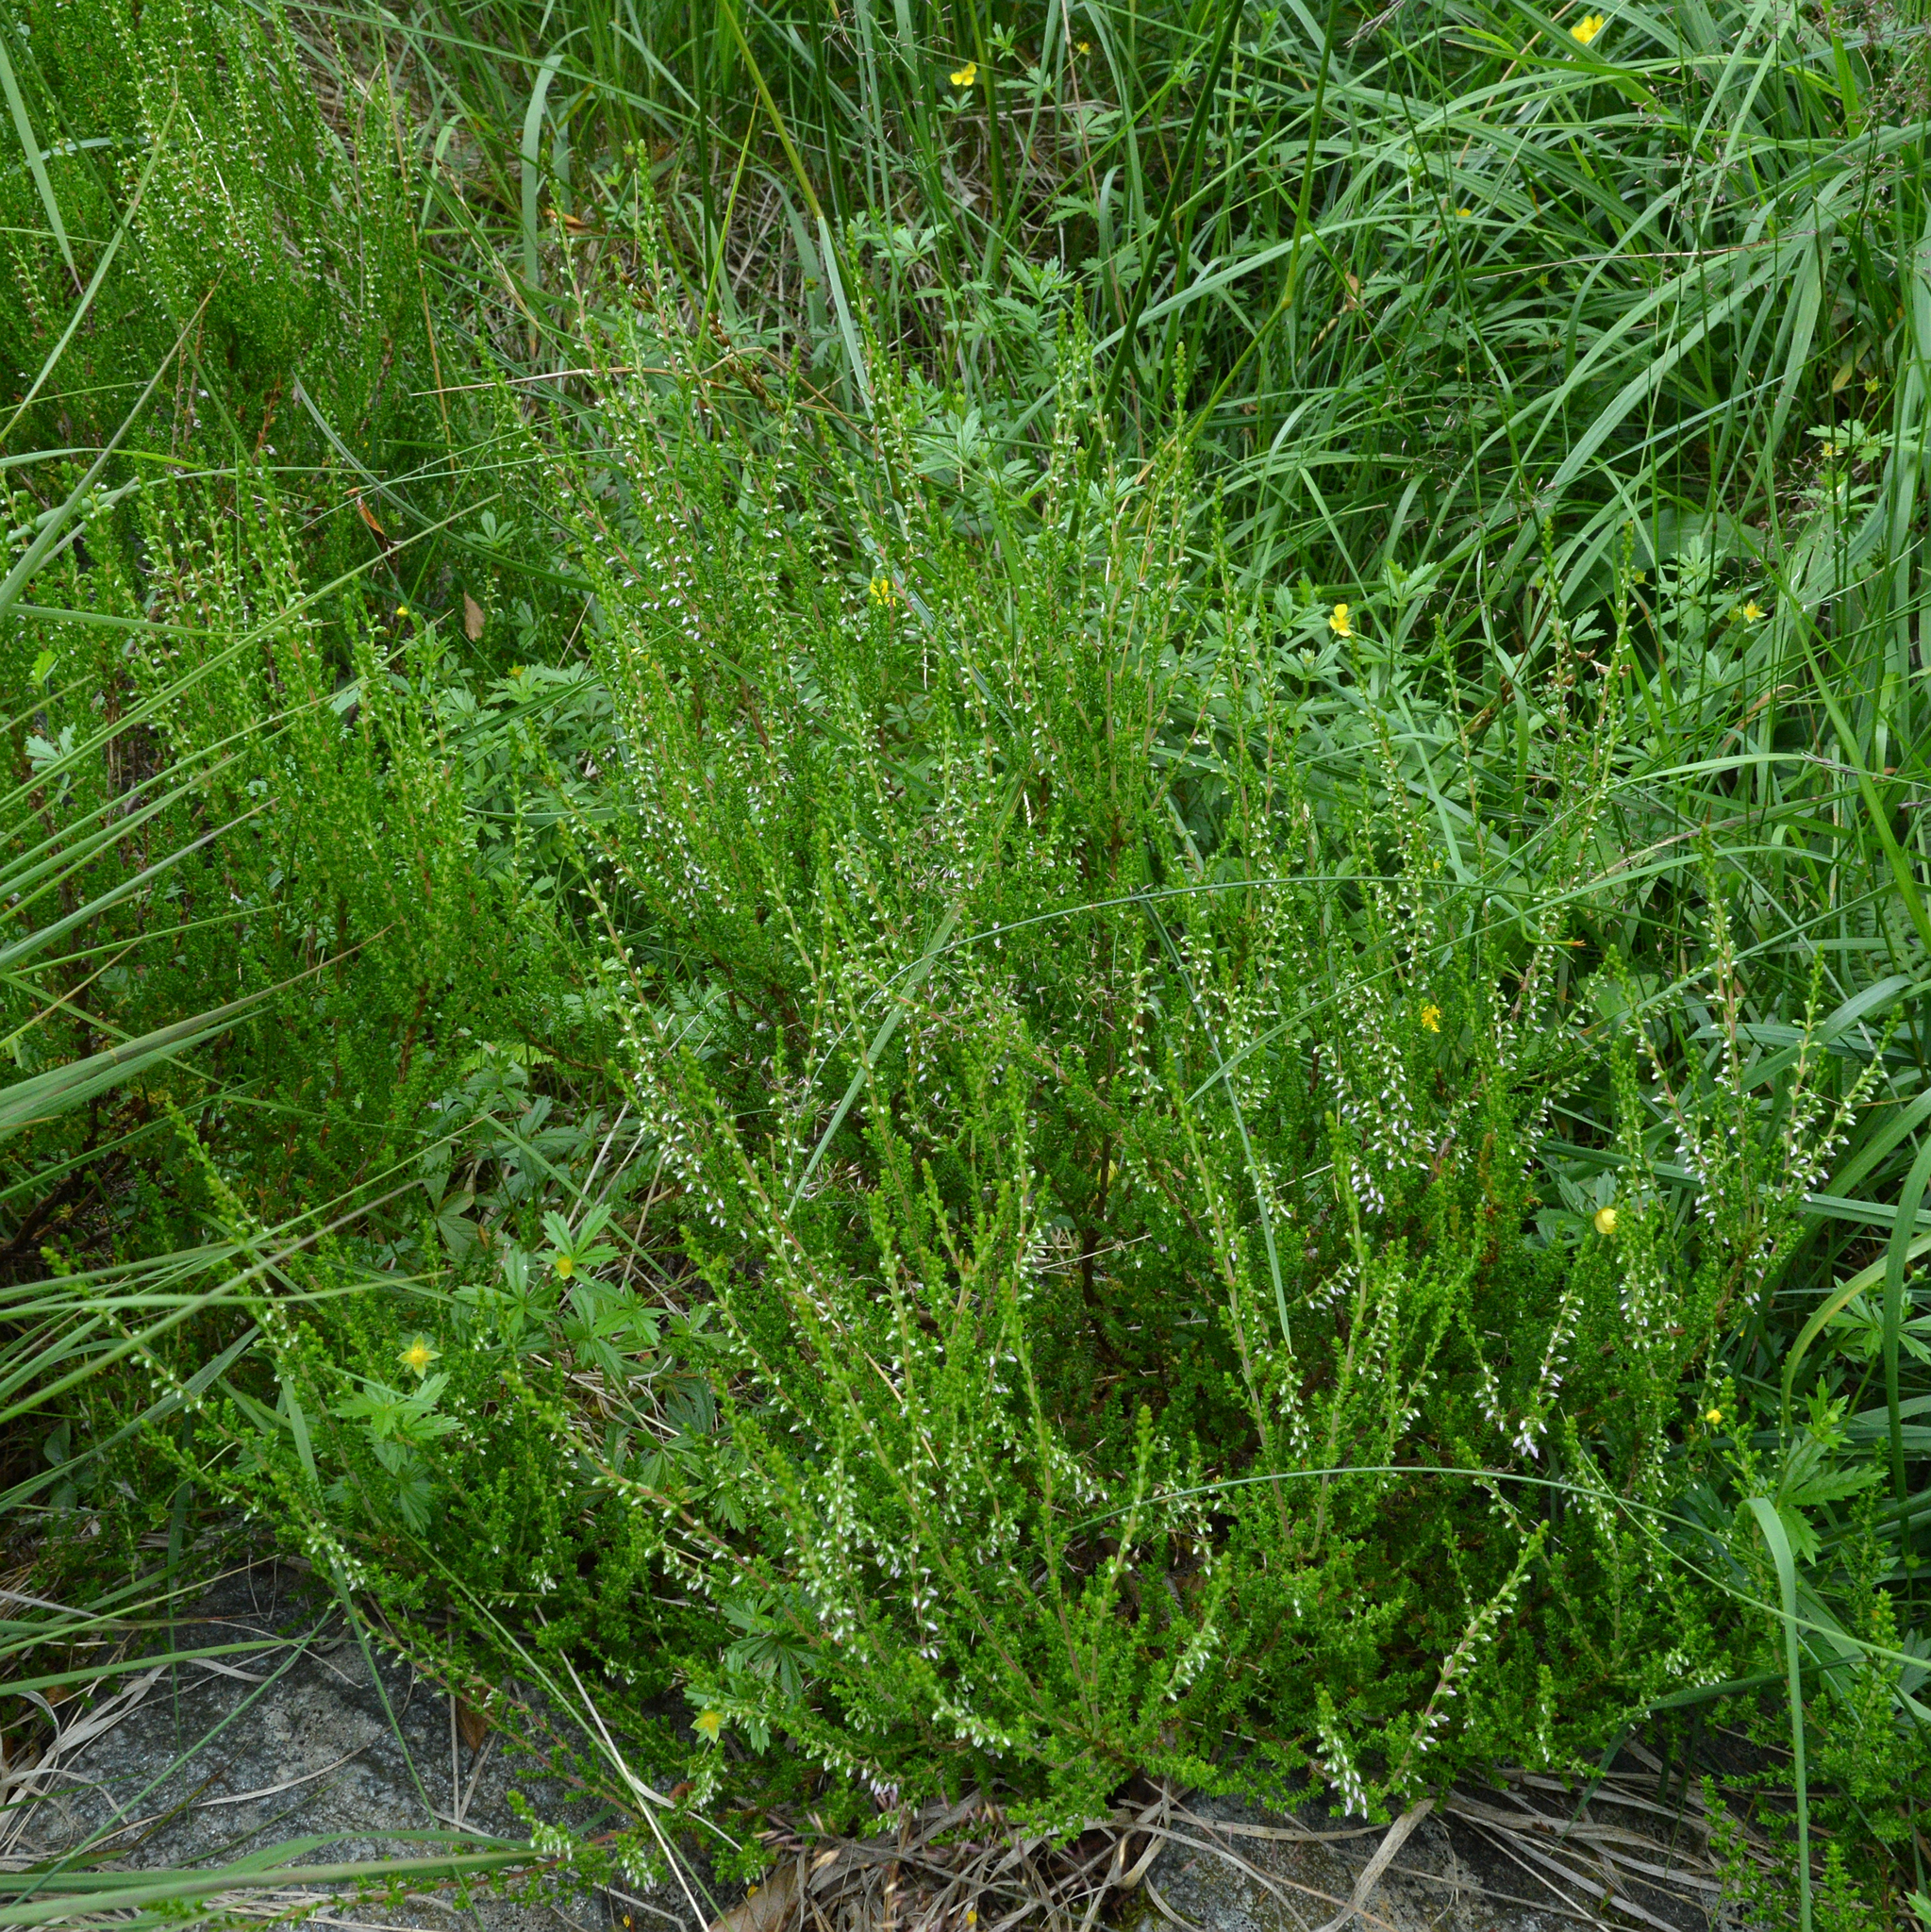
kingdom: Plantae
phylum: Tracheophyta
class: Magnoliopsida
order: Ericales
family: Ericaceae
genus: Calluna
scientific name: Calluna vulgaris
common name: Heather
